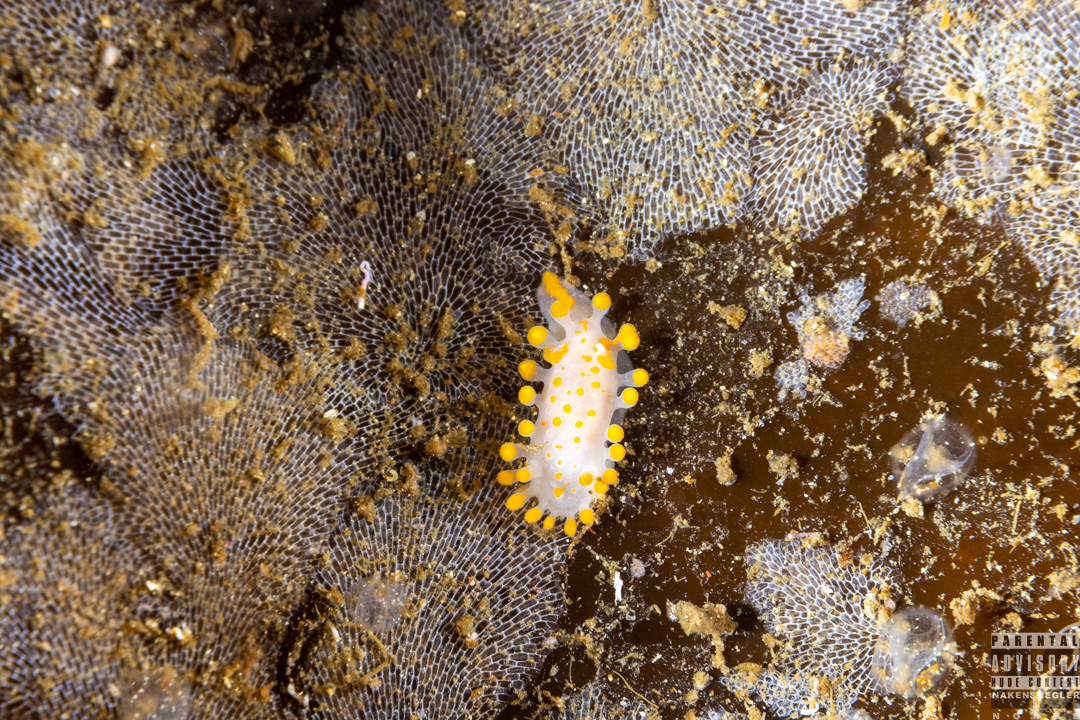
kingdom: Animalia
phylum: Mollusca
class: Gastropoda
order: Nudibranchia
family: Polyceridae
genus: Limacia
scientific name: Limacia clavigera
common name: Orange-clubbed sea slug
